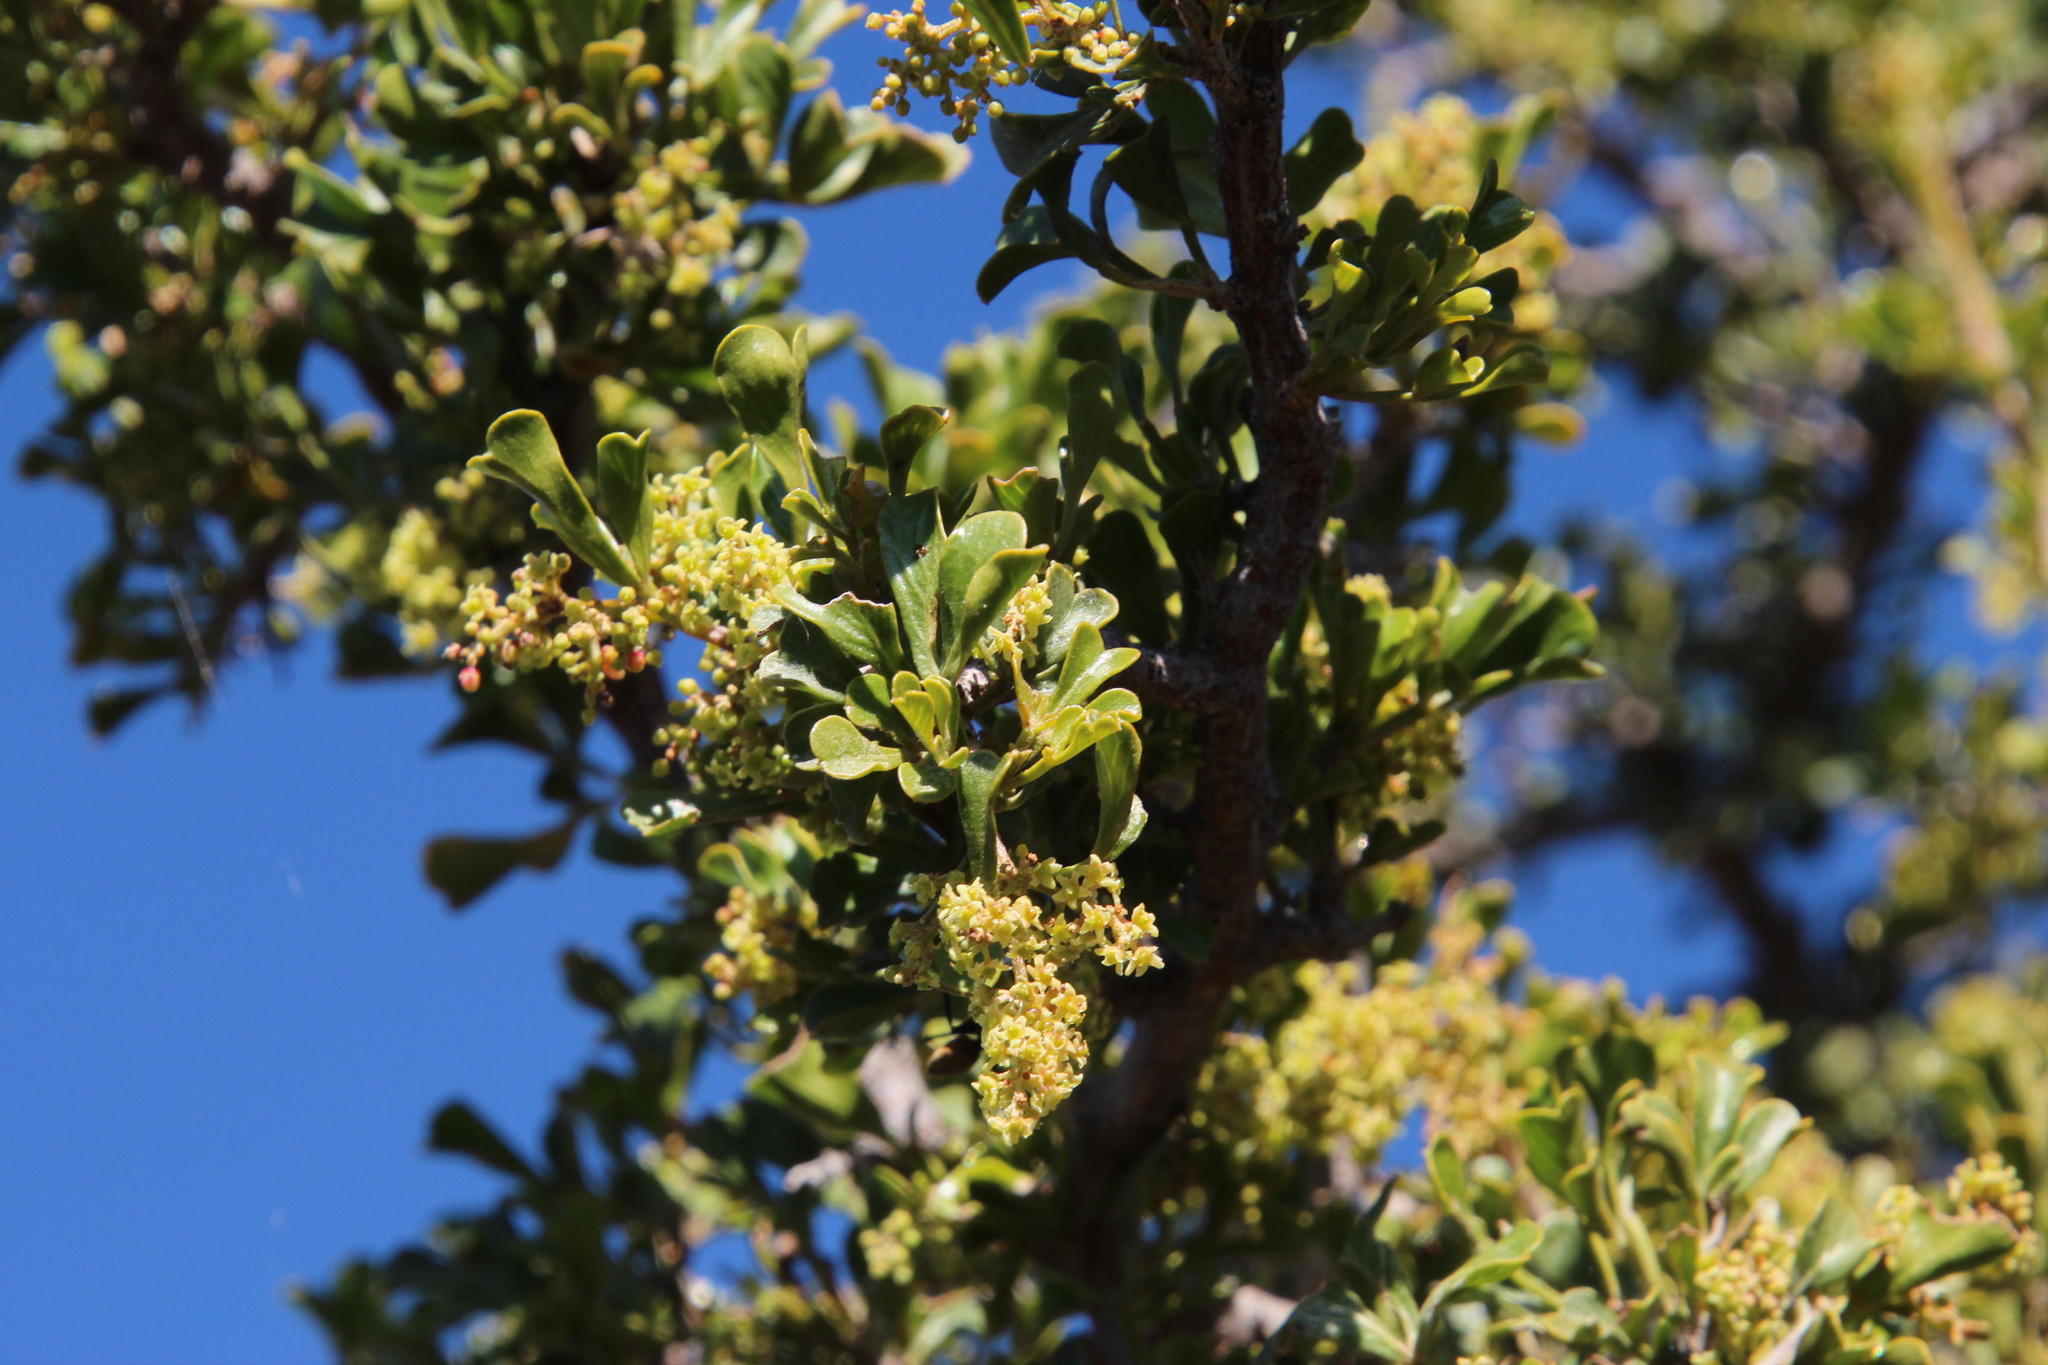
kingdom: Plantae
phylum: Tracheophyta
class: Magnoliopsida
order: Sapindales
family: Anacardiaceae
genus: Searsia
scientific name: Searsia burchellii
